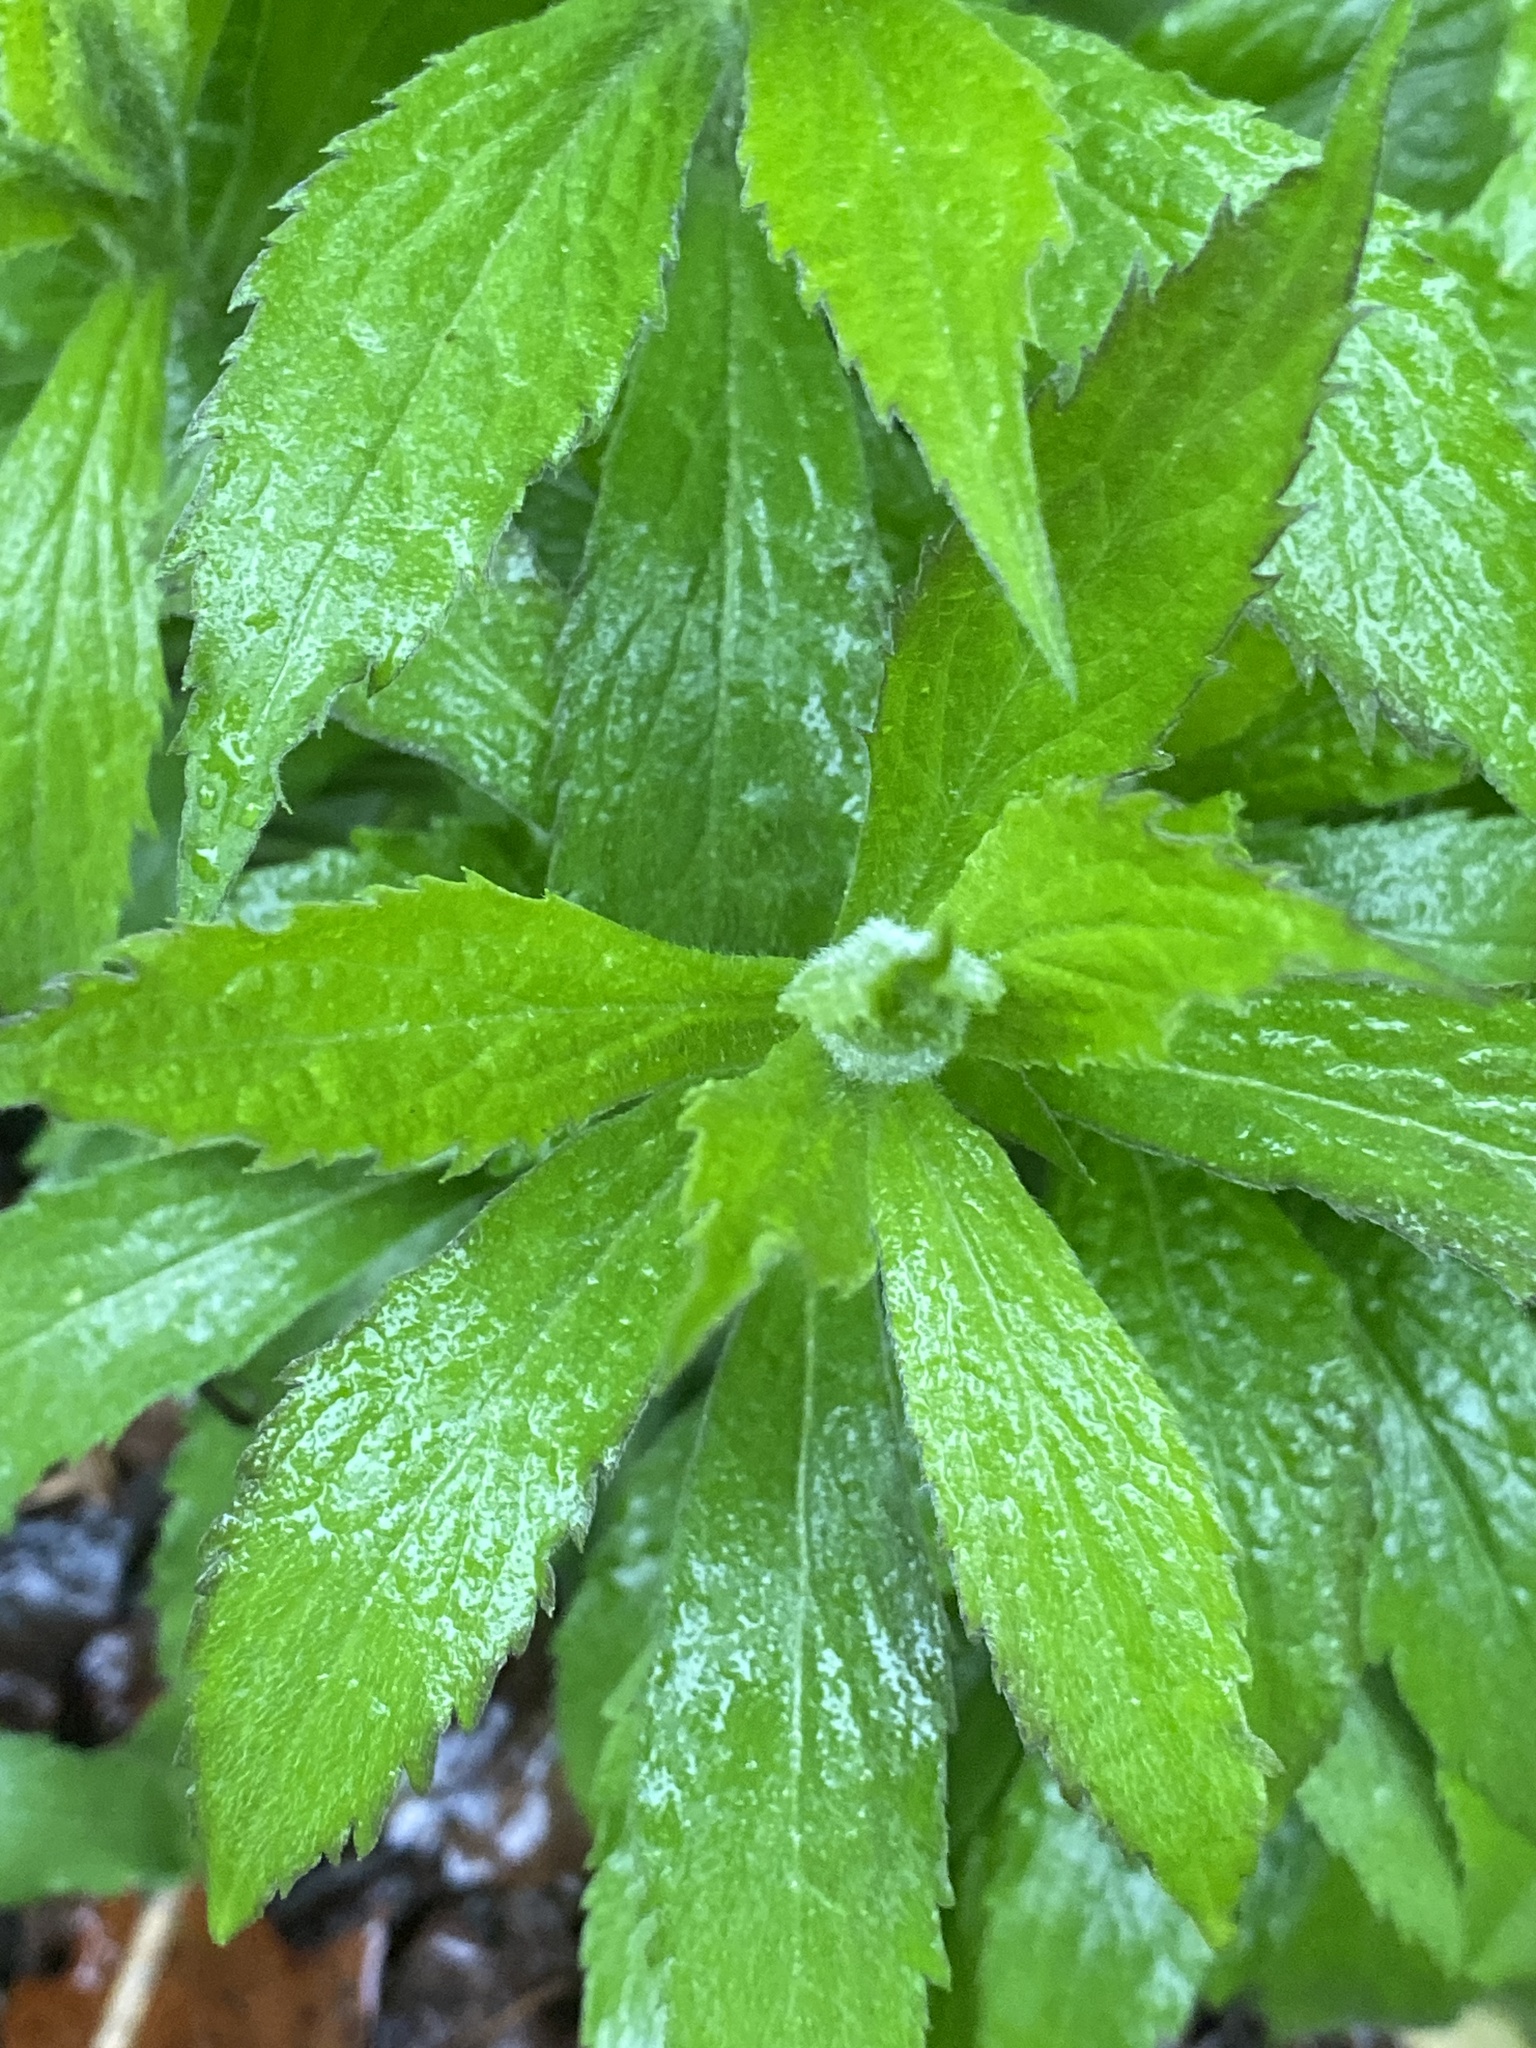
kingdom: Plantae
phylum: Tracheophyta
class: Magnoliopsida
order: Asterales
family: Asteraceae
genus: Solidago
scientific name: Solidago rugosa
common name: Rough-stemmed goldenrod
